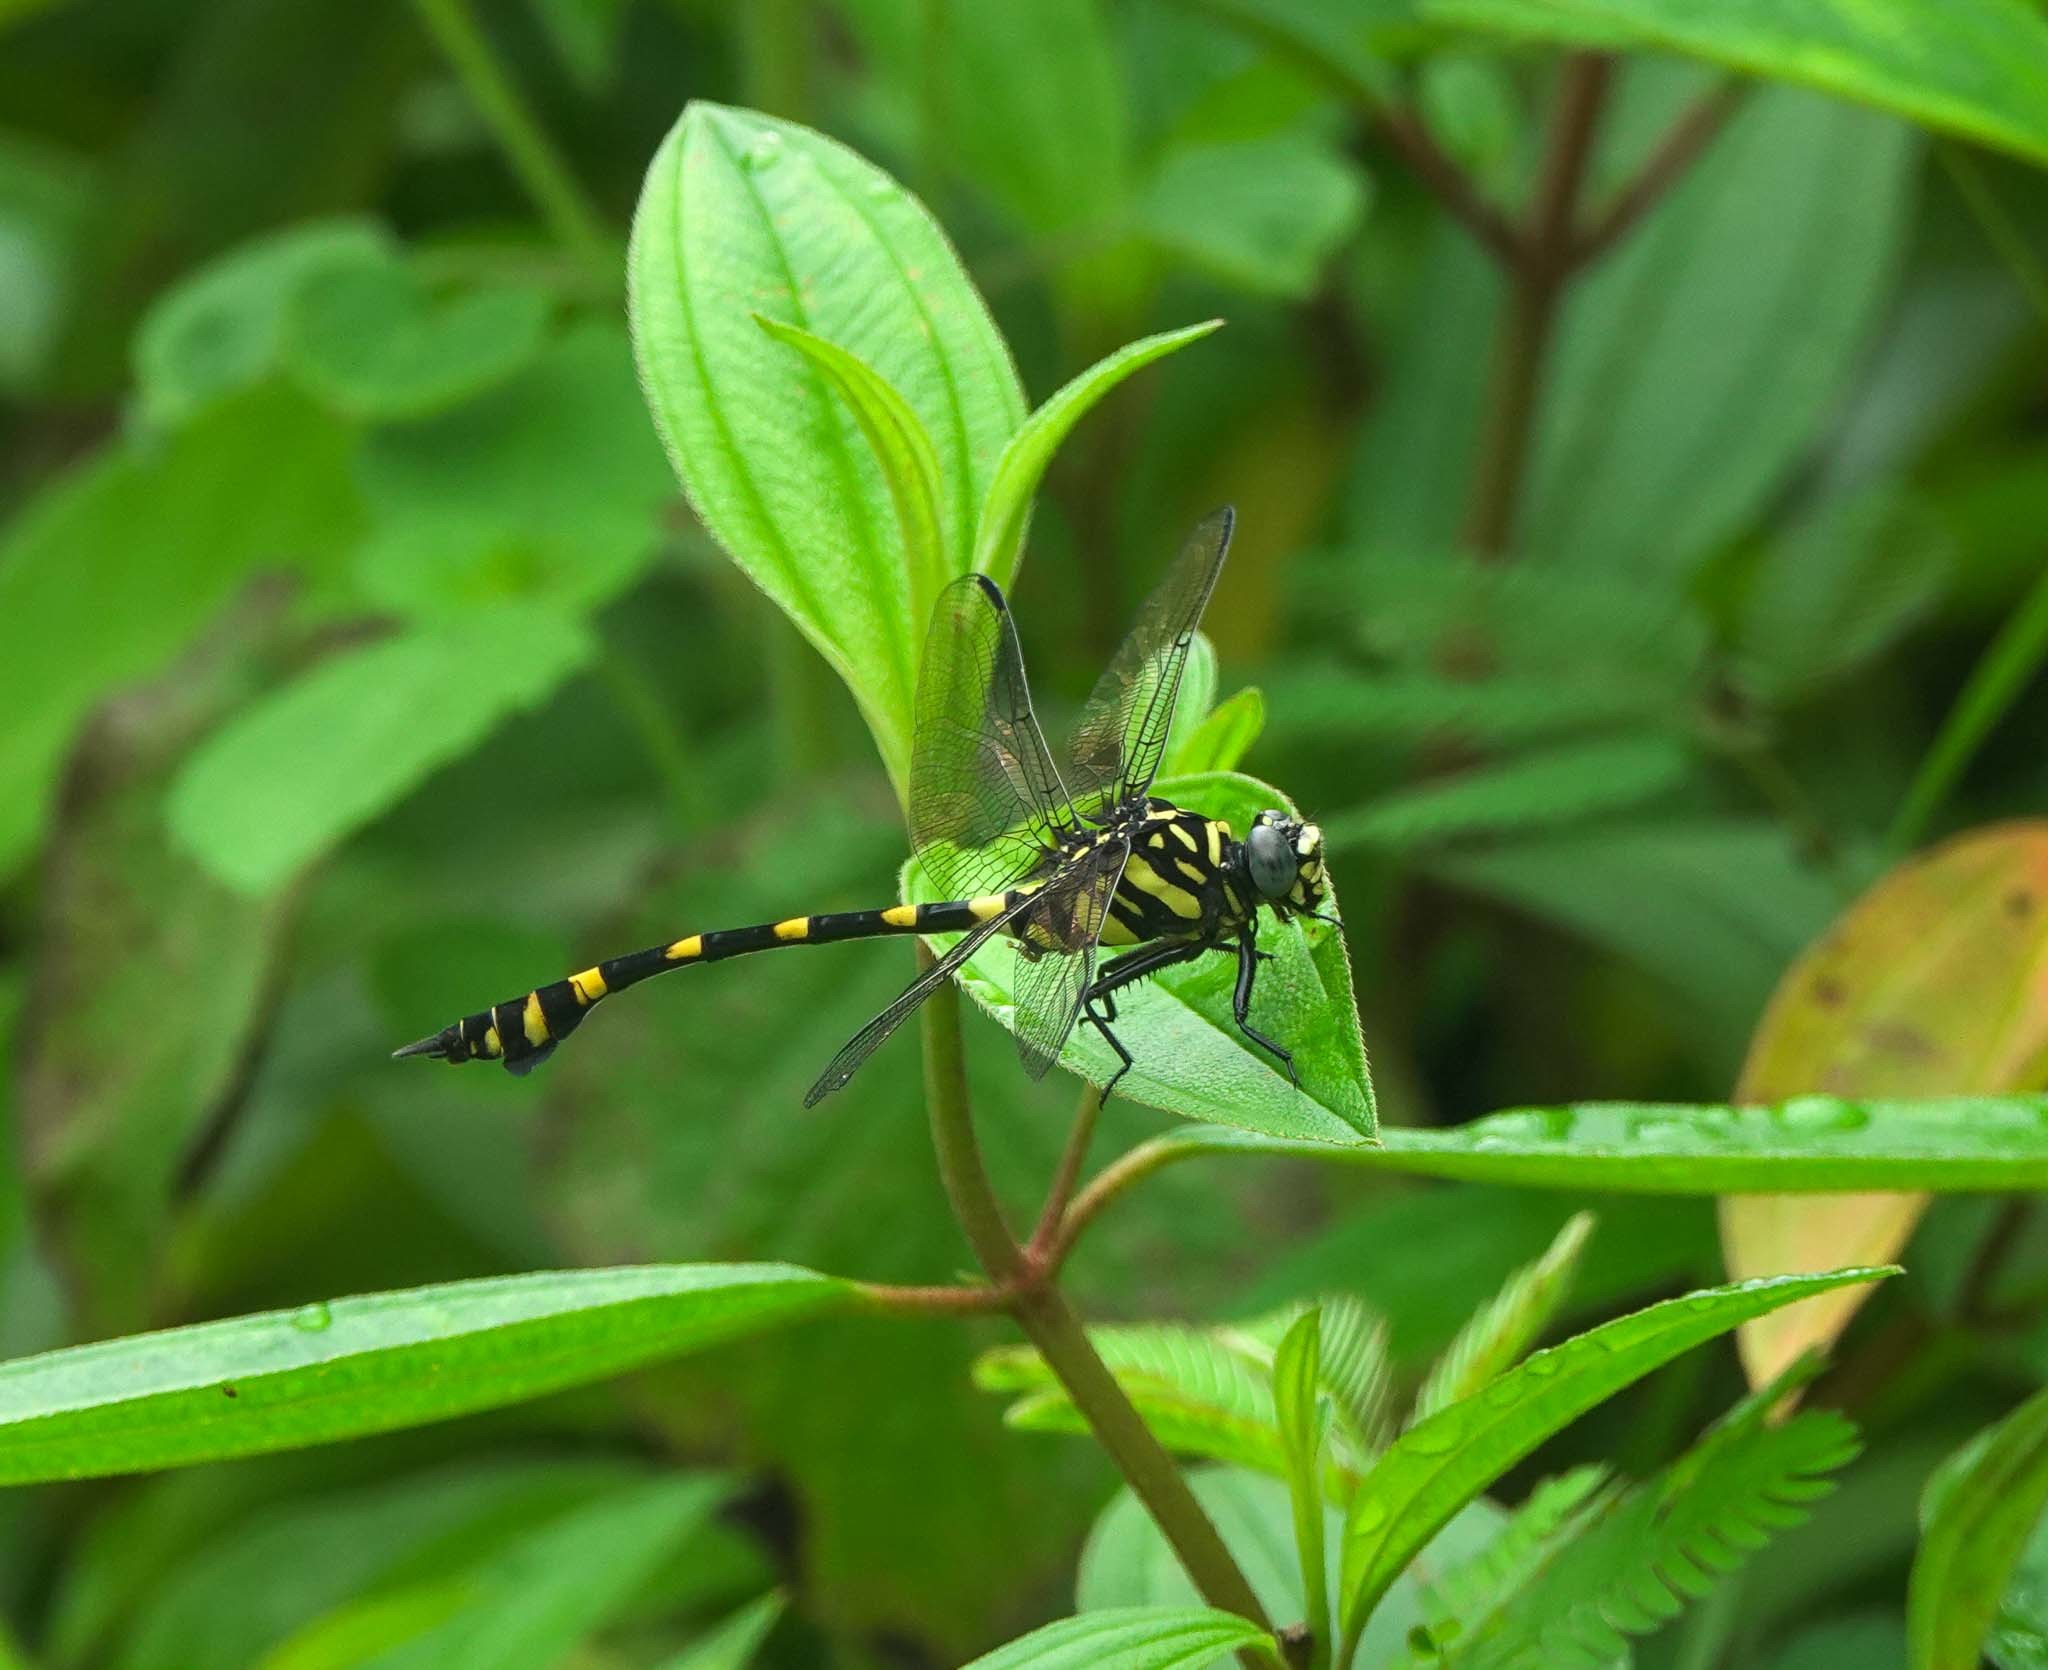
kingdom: Animalia
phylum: Arthropoda
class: Insecta
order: Odonata
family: Gomphidae
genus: Ictinogomphus
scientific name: Ictinogomphus rapax
